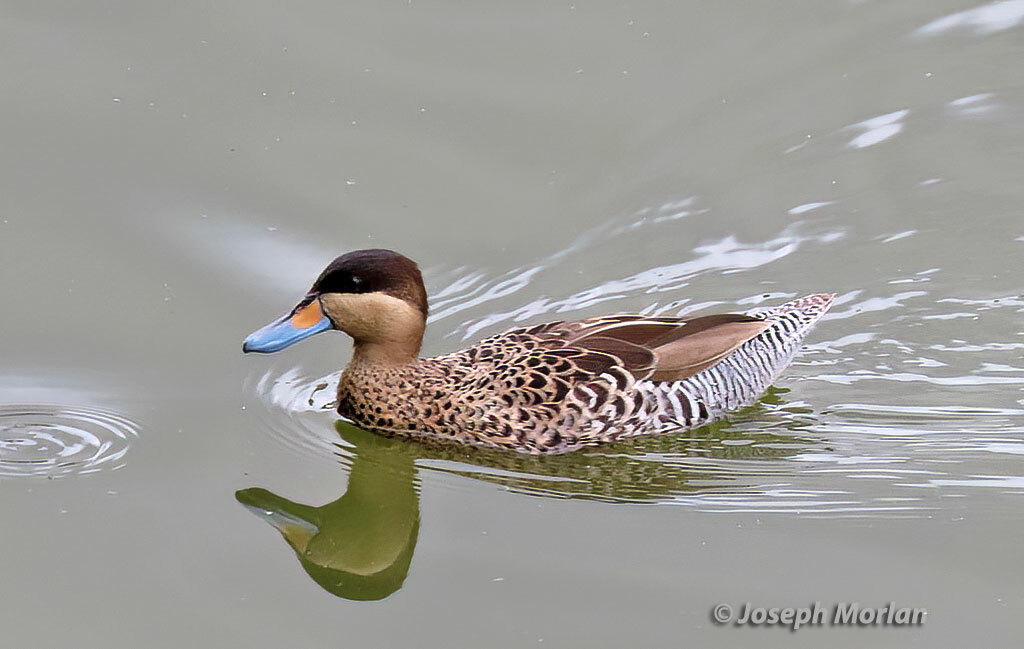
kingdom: Animalia
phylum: Chordata
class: Aves
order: Anseriformes
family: Anatidae
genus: Spatula
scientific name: Spatula versicolor
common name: Silver teal
